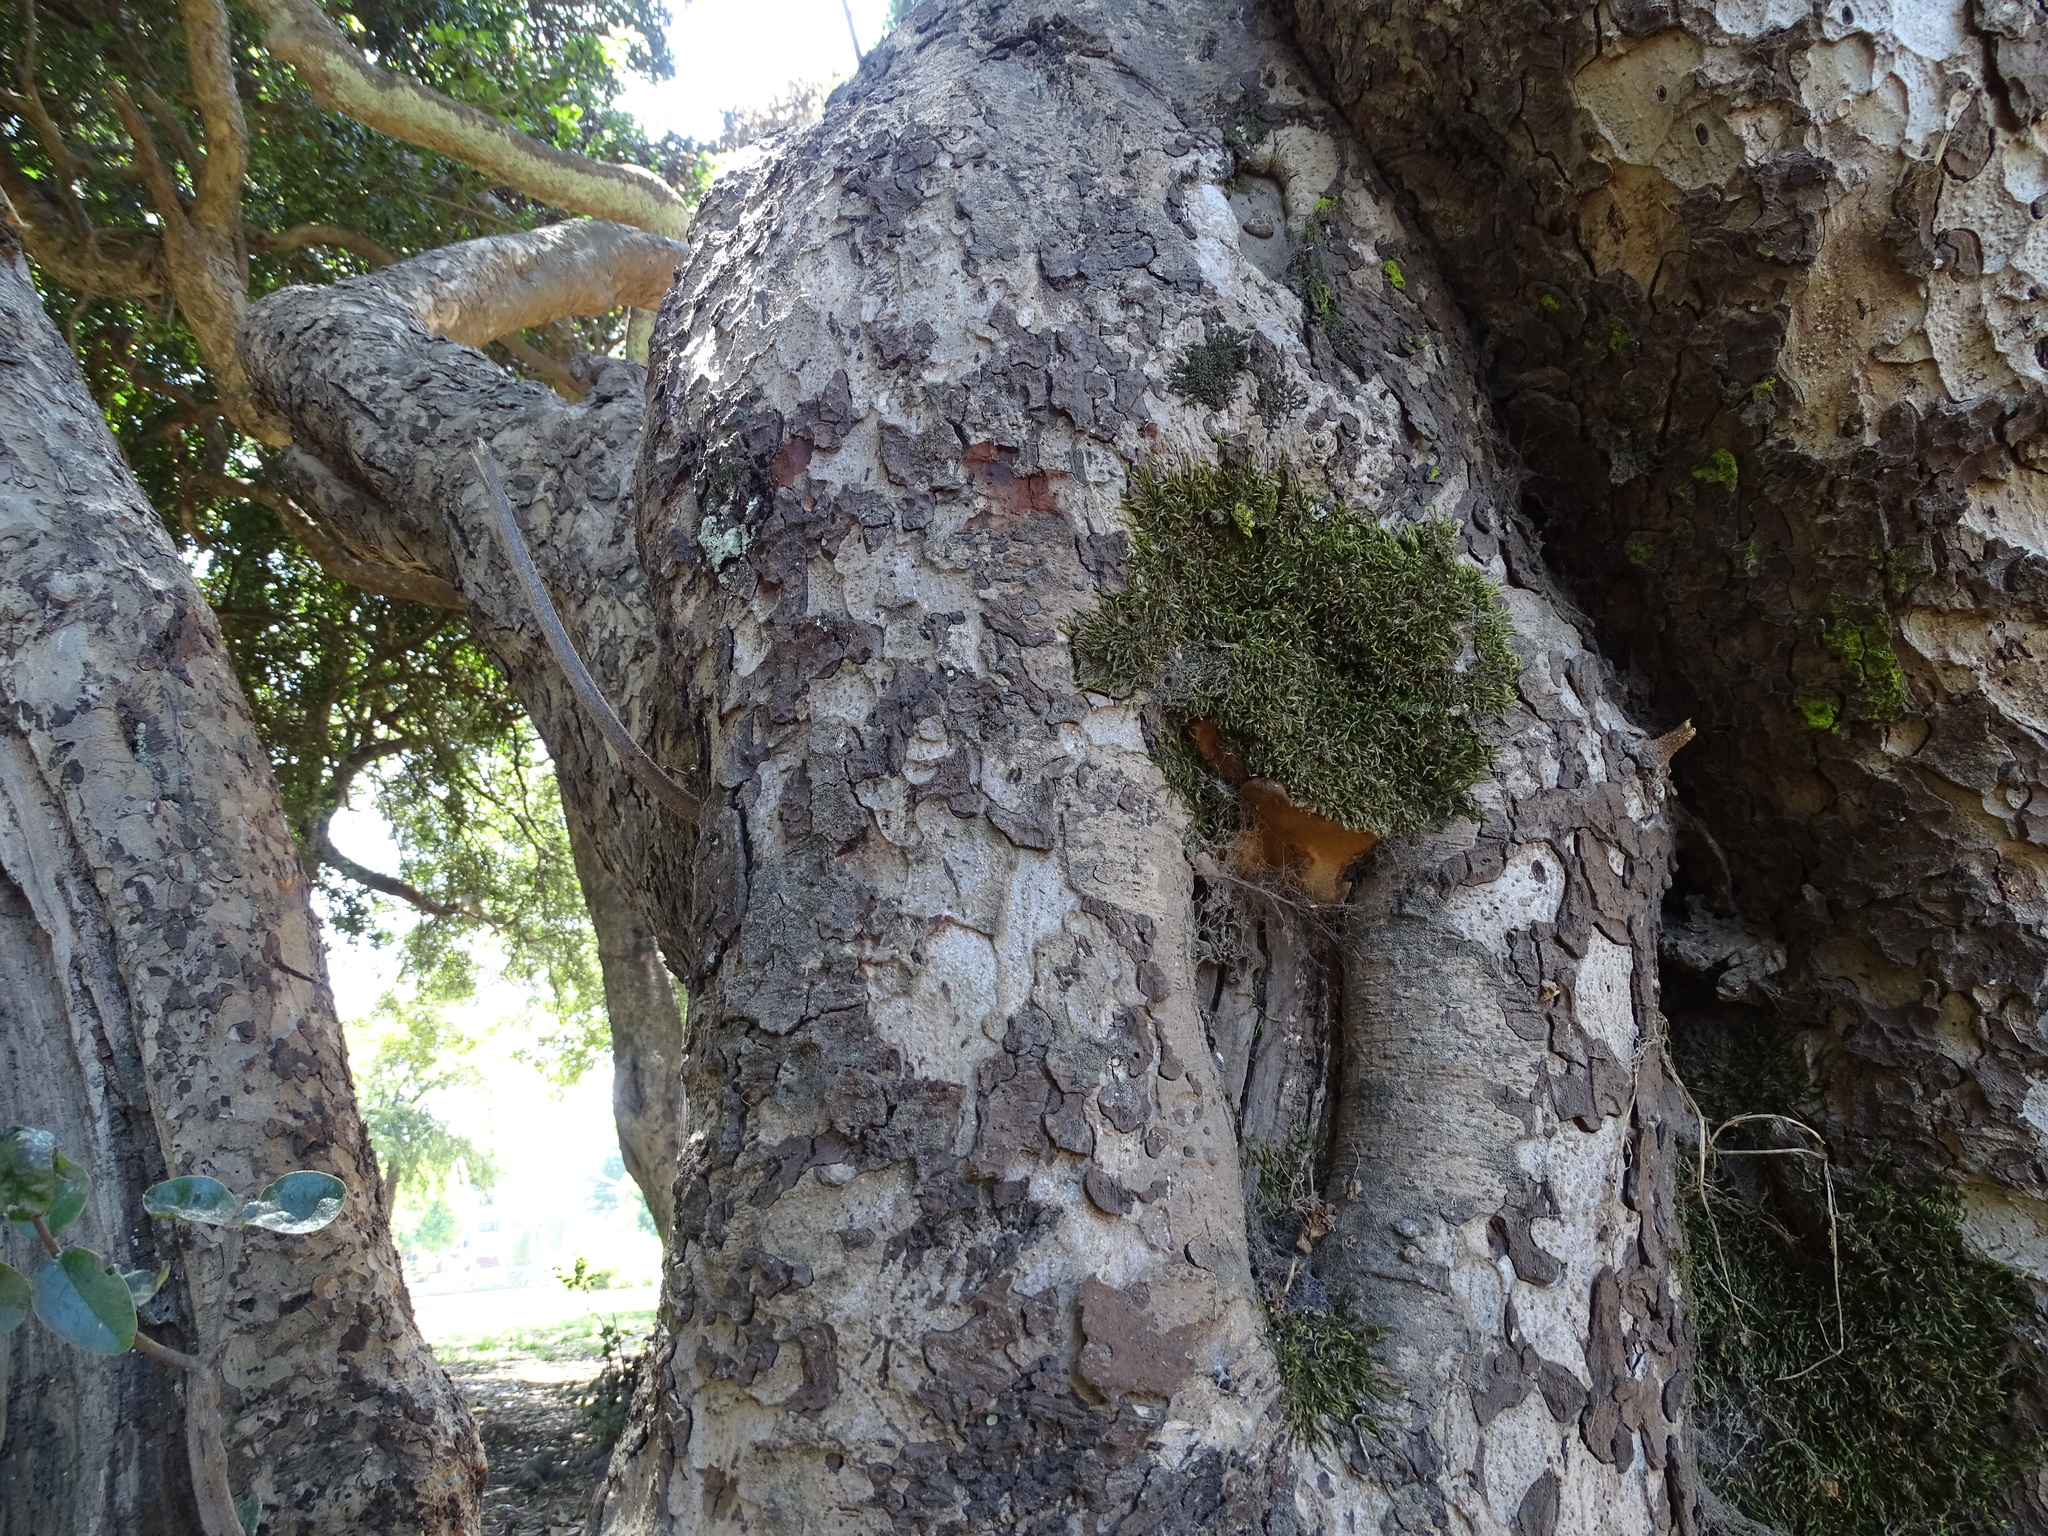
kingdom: Fungi
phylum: Basidiomycota
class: Agaricomycetes
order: Hymenochaetales
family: Hymenochaetaceae
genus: Phylloporia
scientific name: Phylloporia boldo
